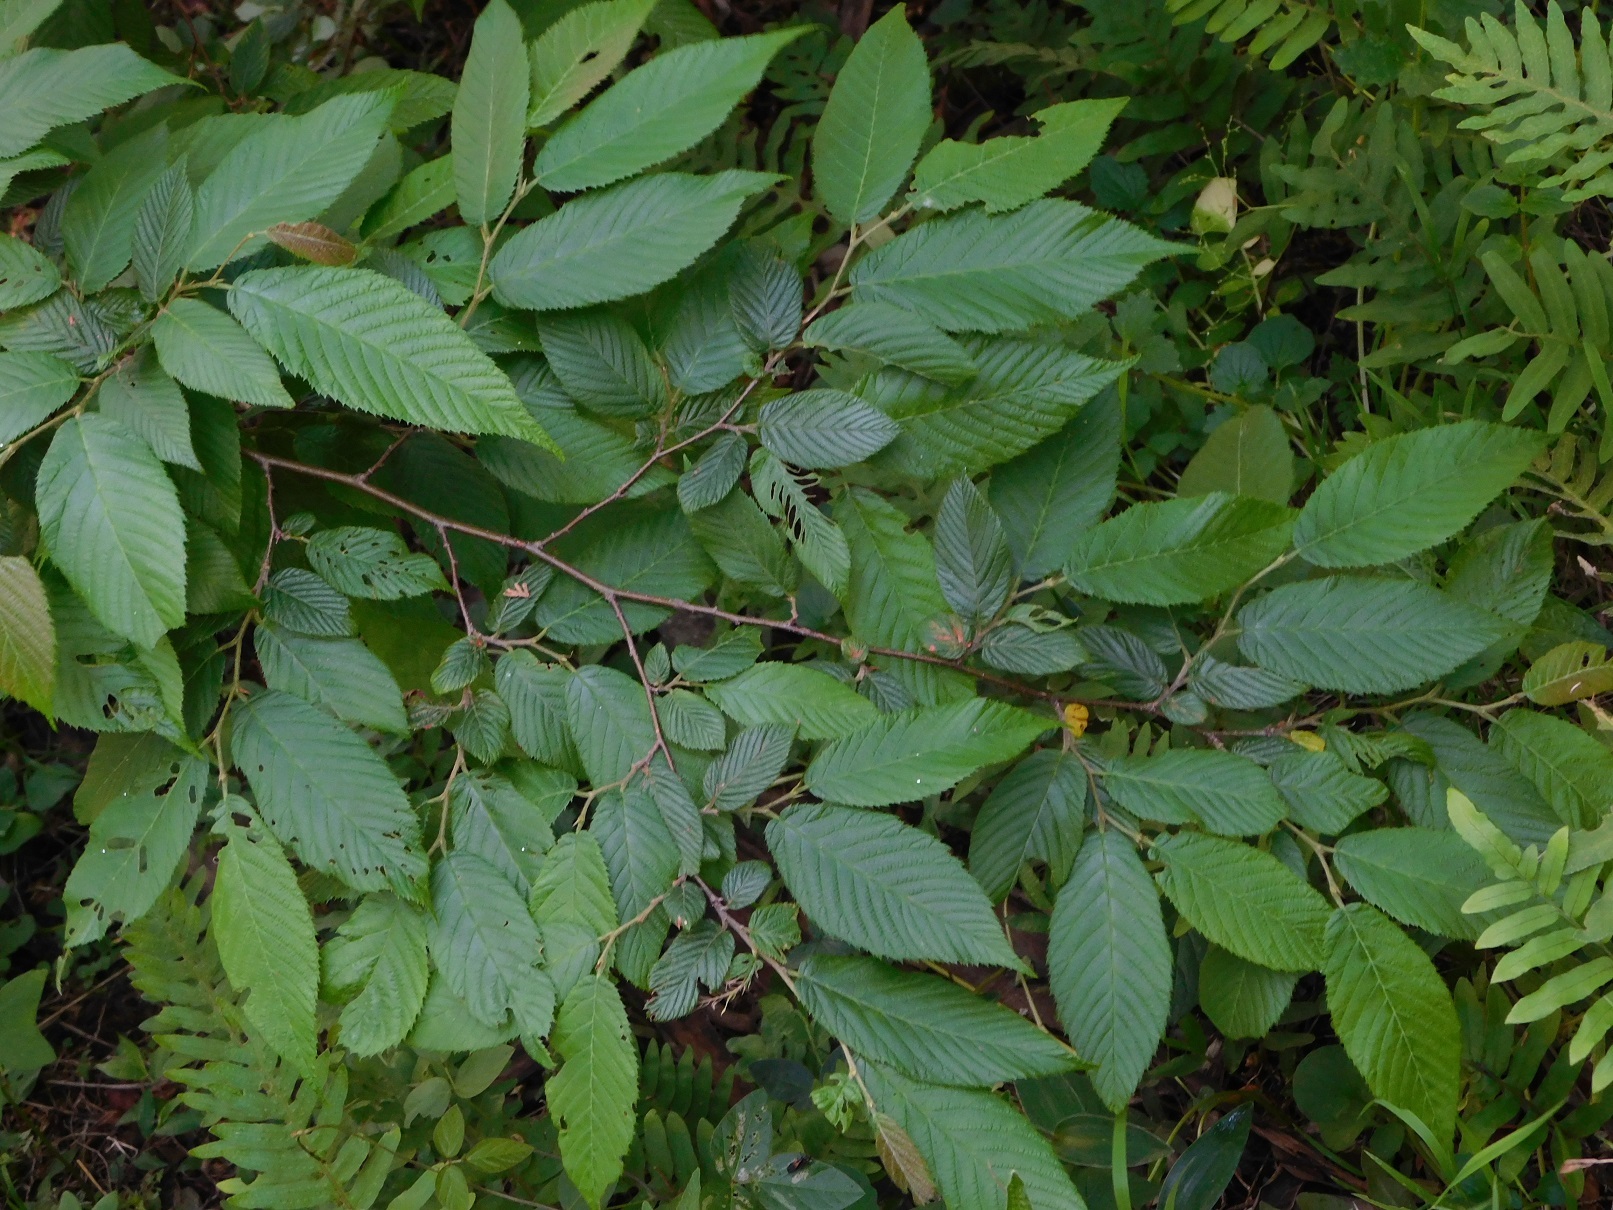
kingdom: Plantae
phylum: Tracheophyta
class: Magnoliopsida
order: Fagales
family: Betulaceae
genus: Ostrya
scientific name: Ostrya virginiana
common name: Ironwood
